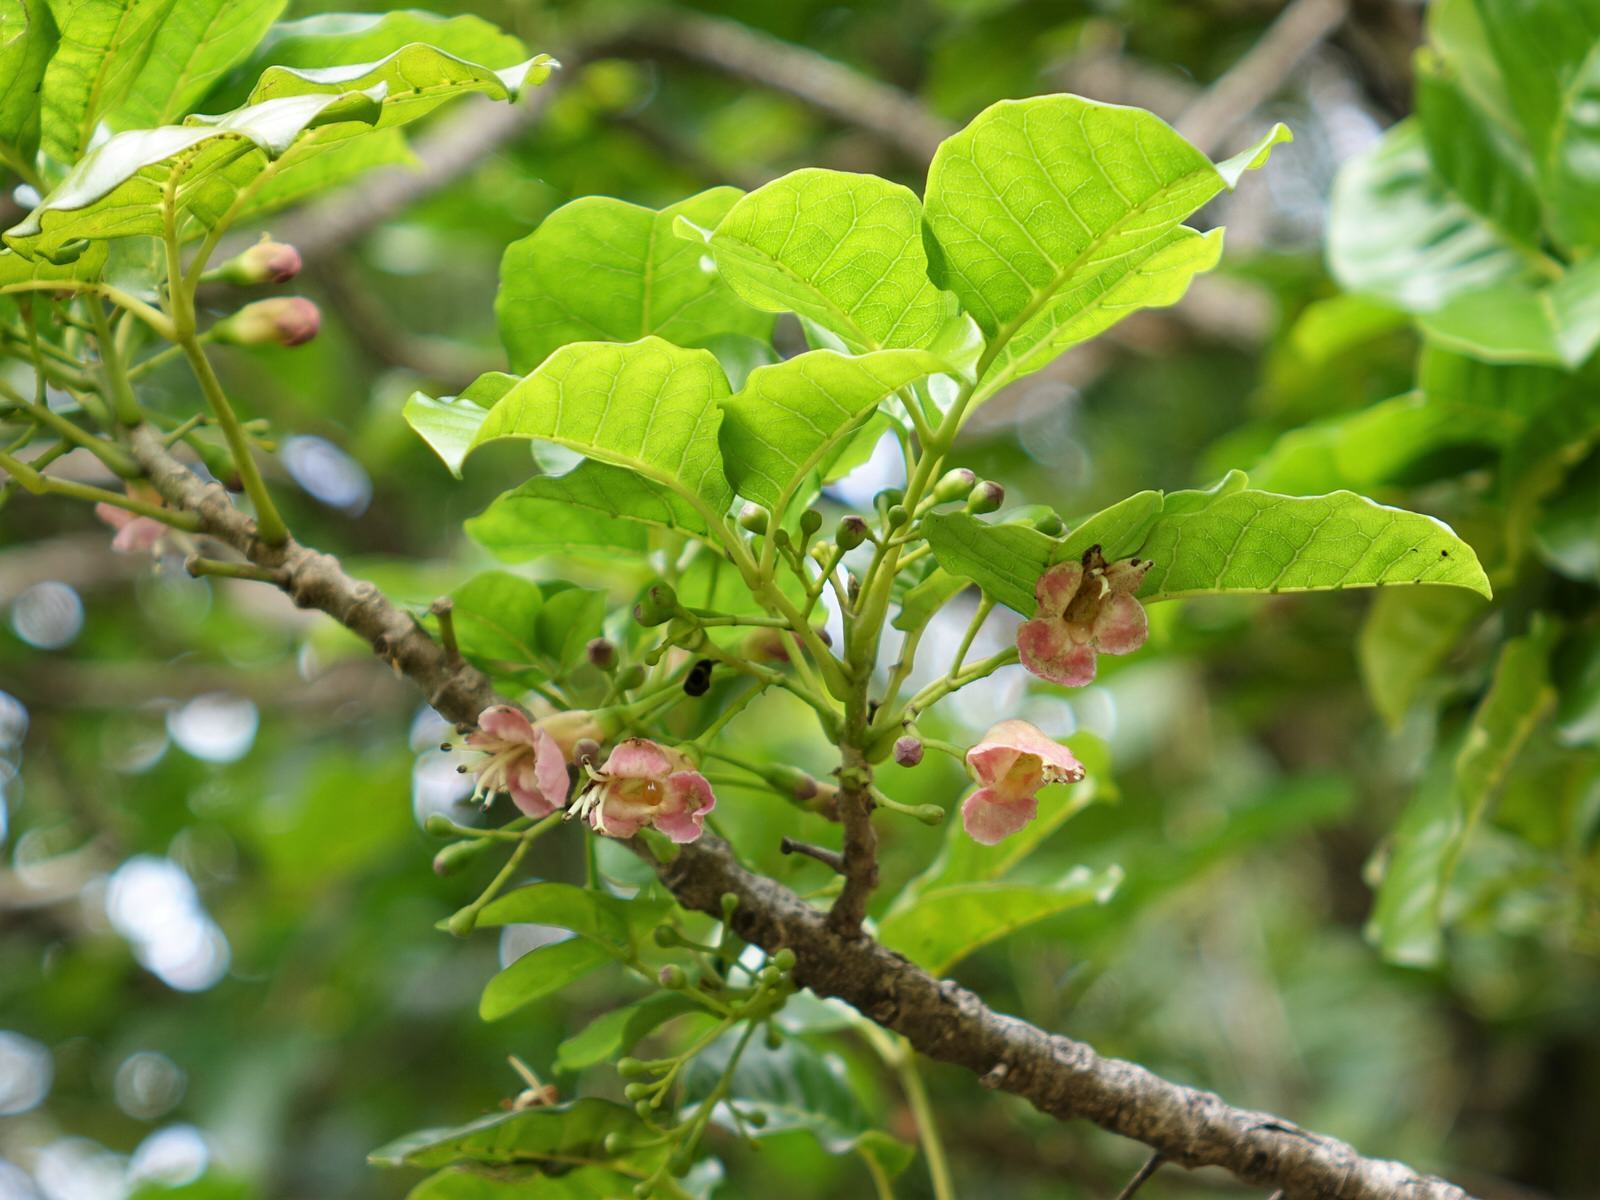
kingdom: Plantae
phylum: Tracheophyta
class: Magnoliopsida
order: Lamiales
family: Lamiaceae
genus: Vitex
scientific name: Vitex lucens
